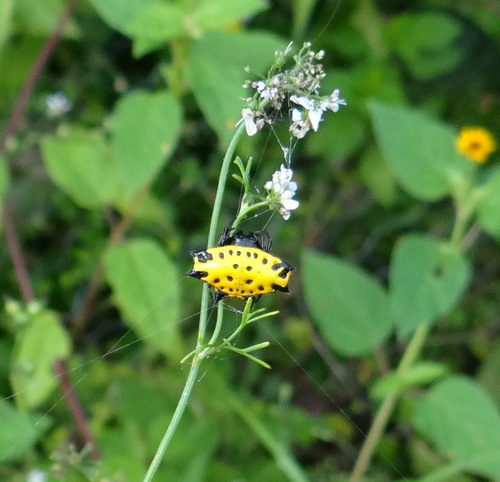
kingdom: Animalia
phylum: Arthropoda
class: Arachnida
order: Araneae
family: Araneidae
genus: Gasteracantha
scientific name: Gasteracantha cancriformis
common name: Orb weavers
